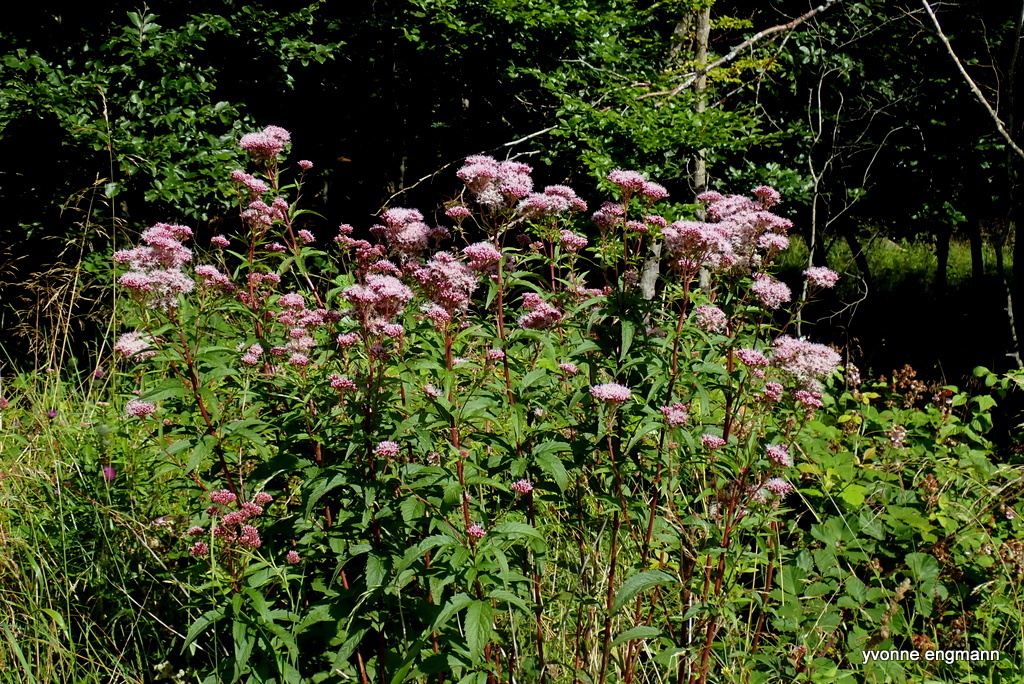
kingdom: Plantae
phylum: Tracheophyta
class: Magnoliopsida
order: Asterales
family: Asteraceae
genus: Eupatorium
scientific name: Eupatorium cannabinum
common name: Hemp-agrimony
